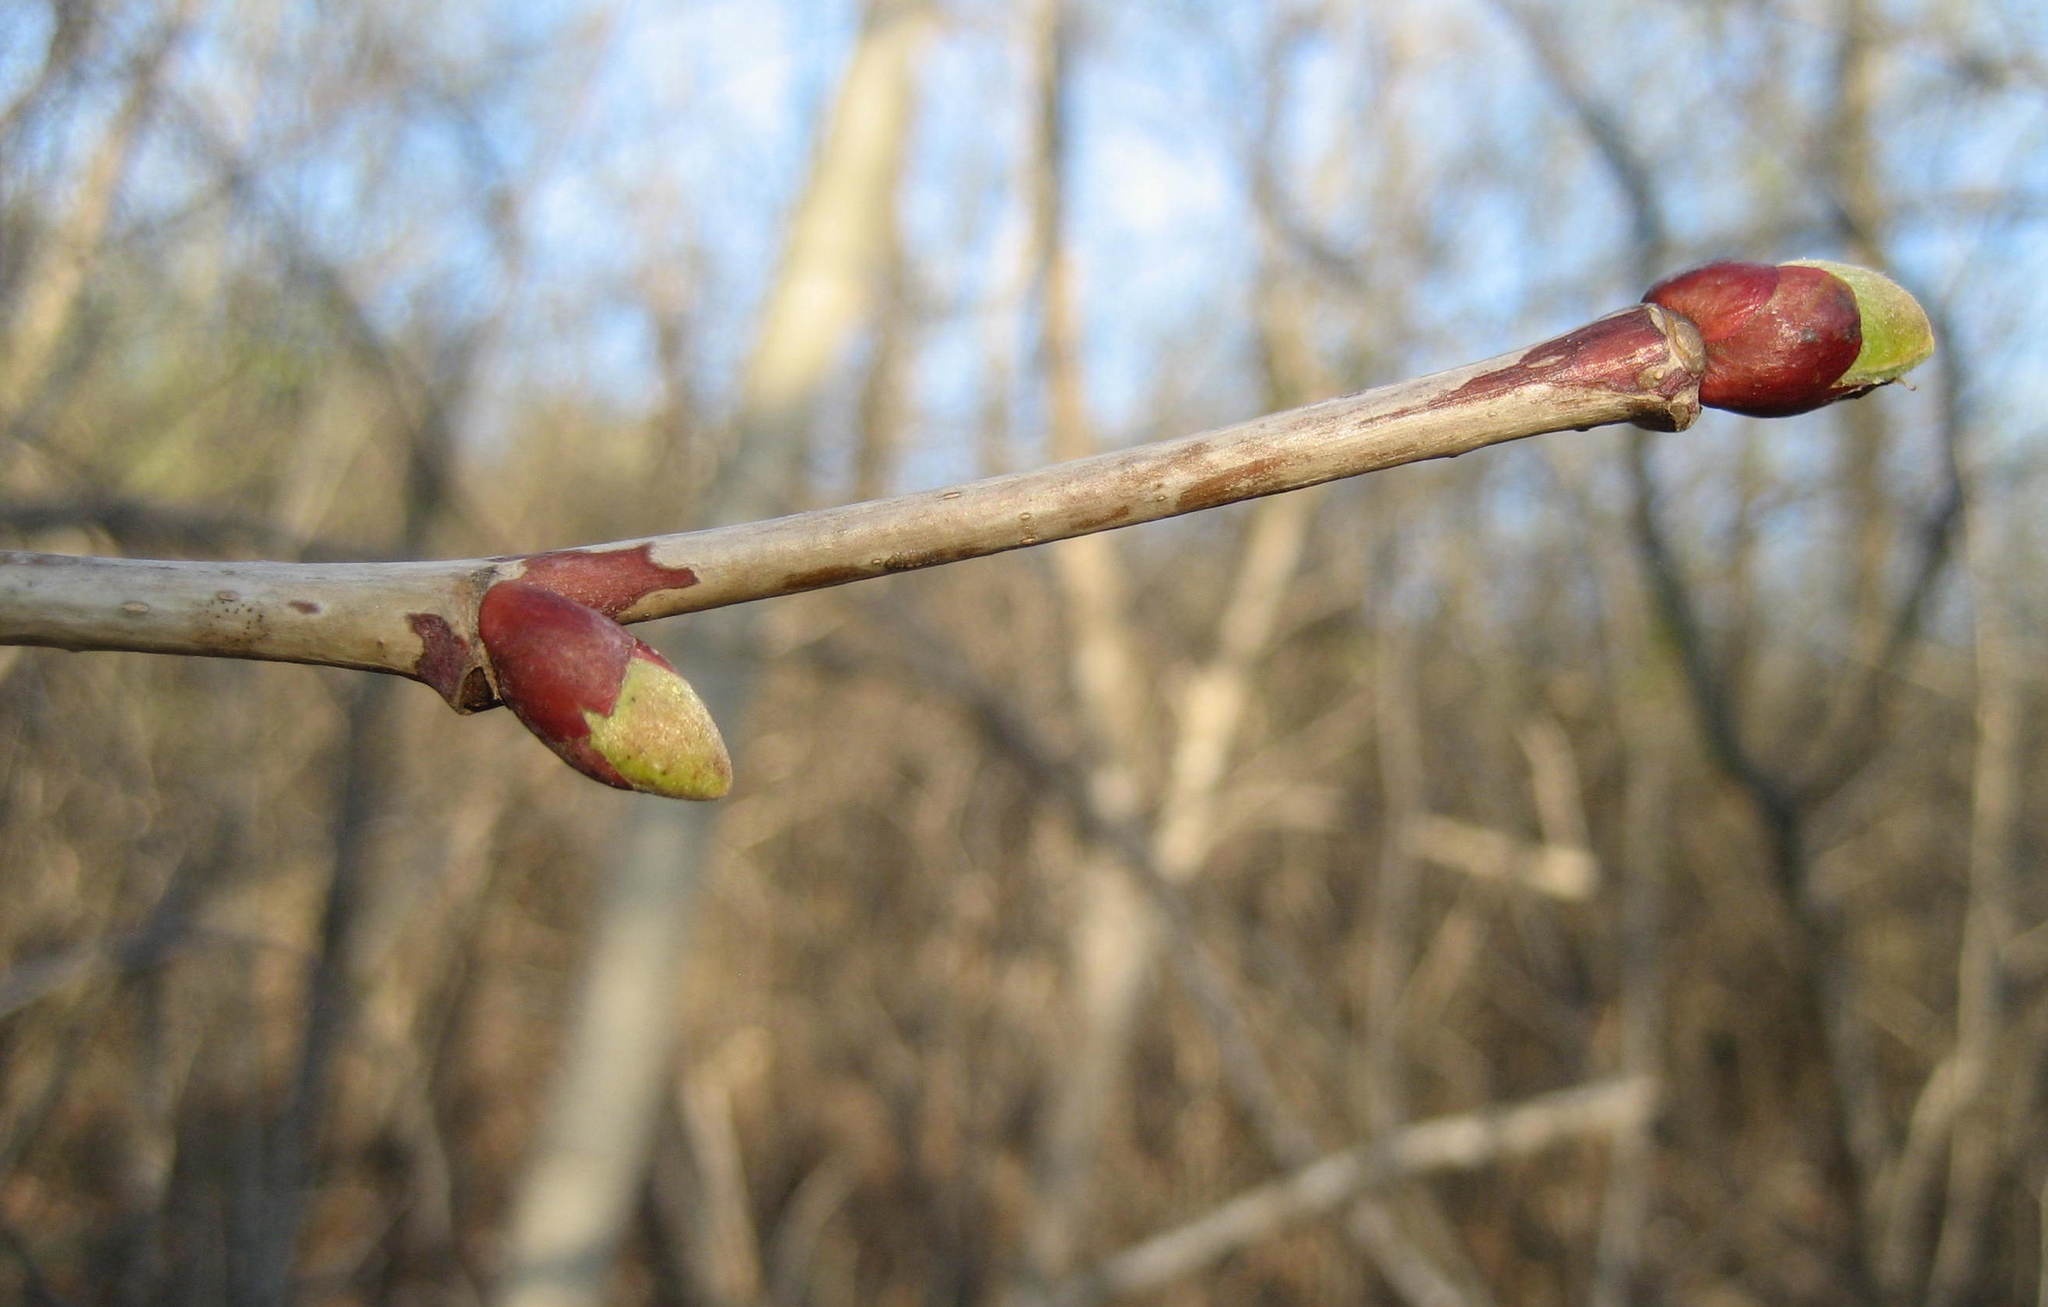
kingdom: Plantae
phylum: Tracheophyta
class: Magnoliopsida
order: Malvales
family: Malvaceae
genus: Tilia
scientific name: Tilia americana
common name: Basswood
